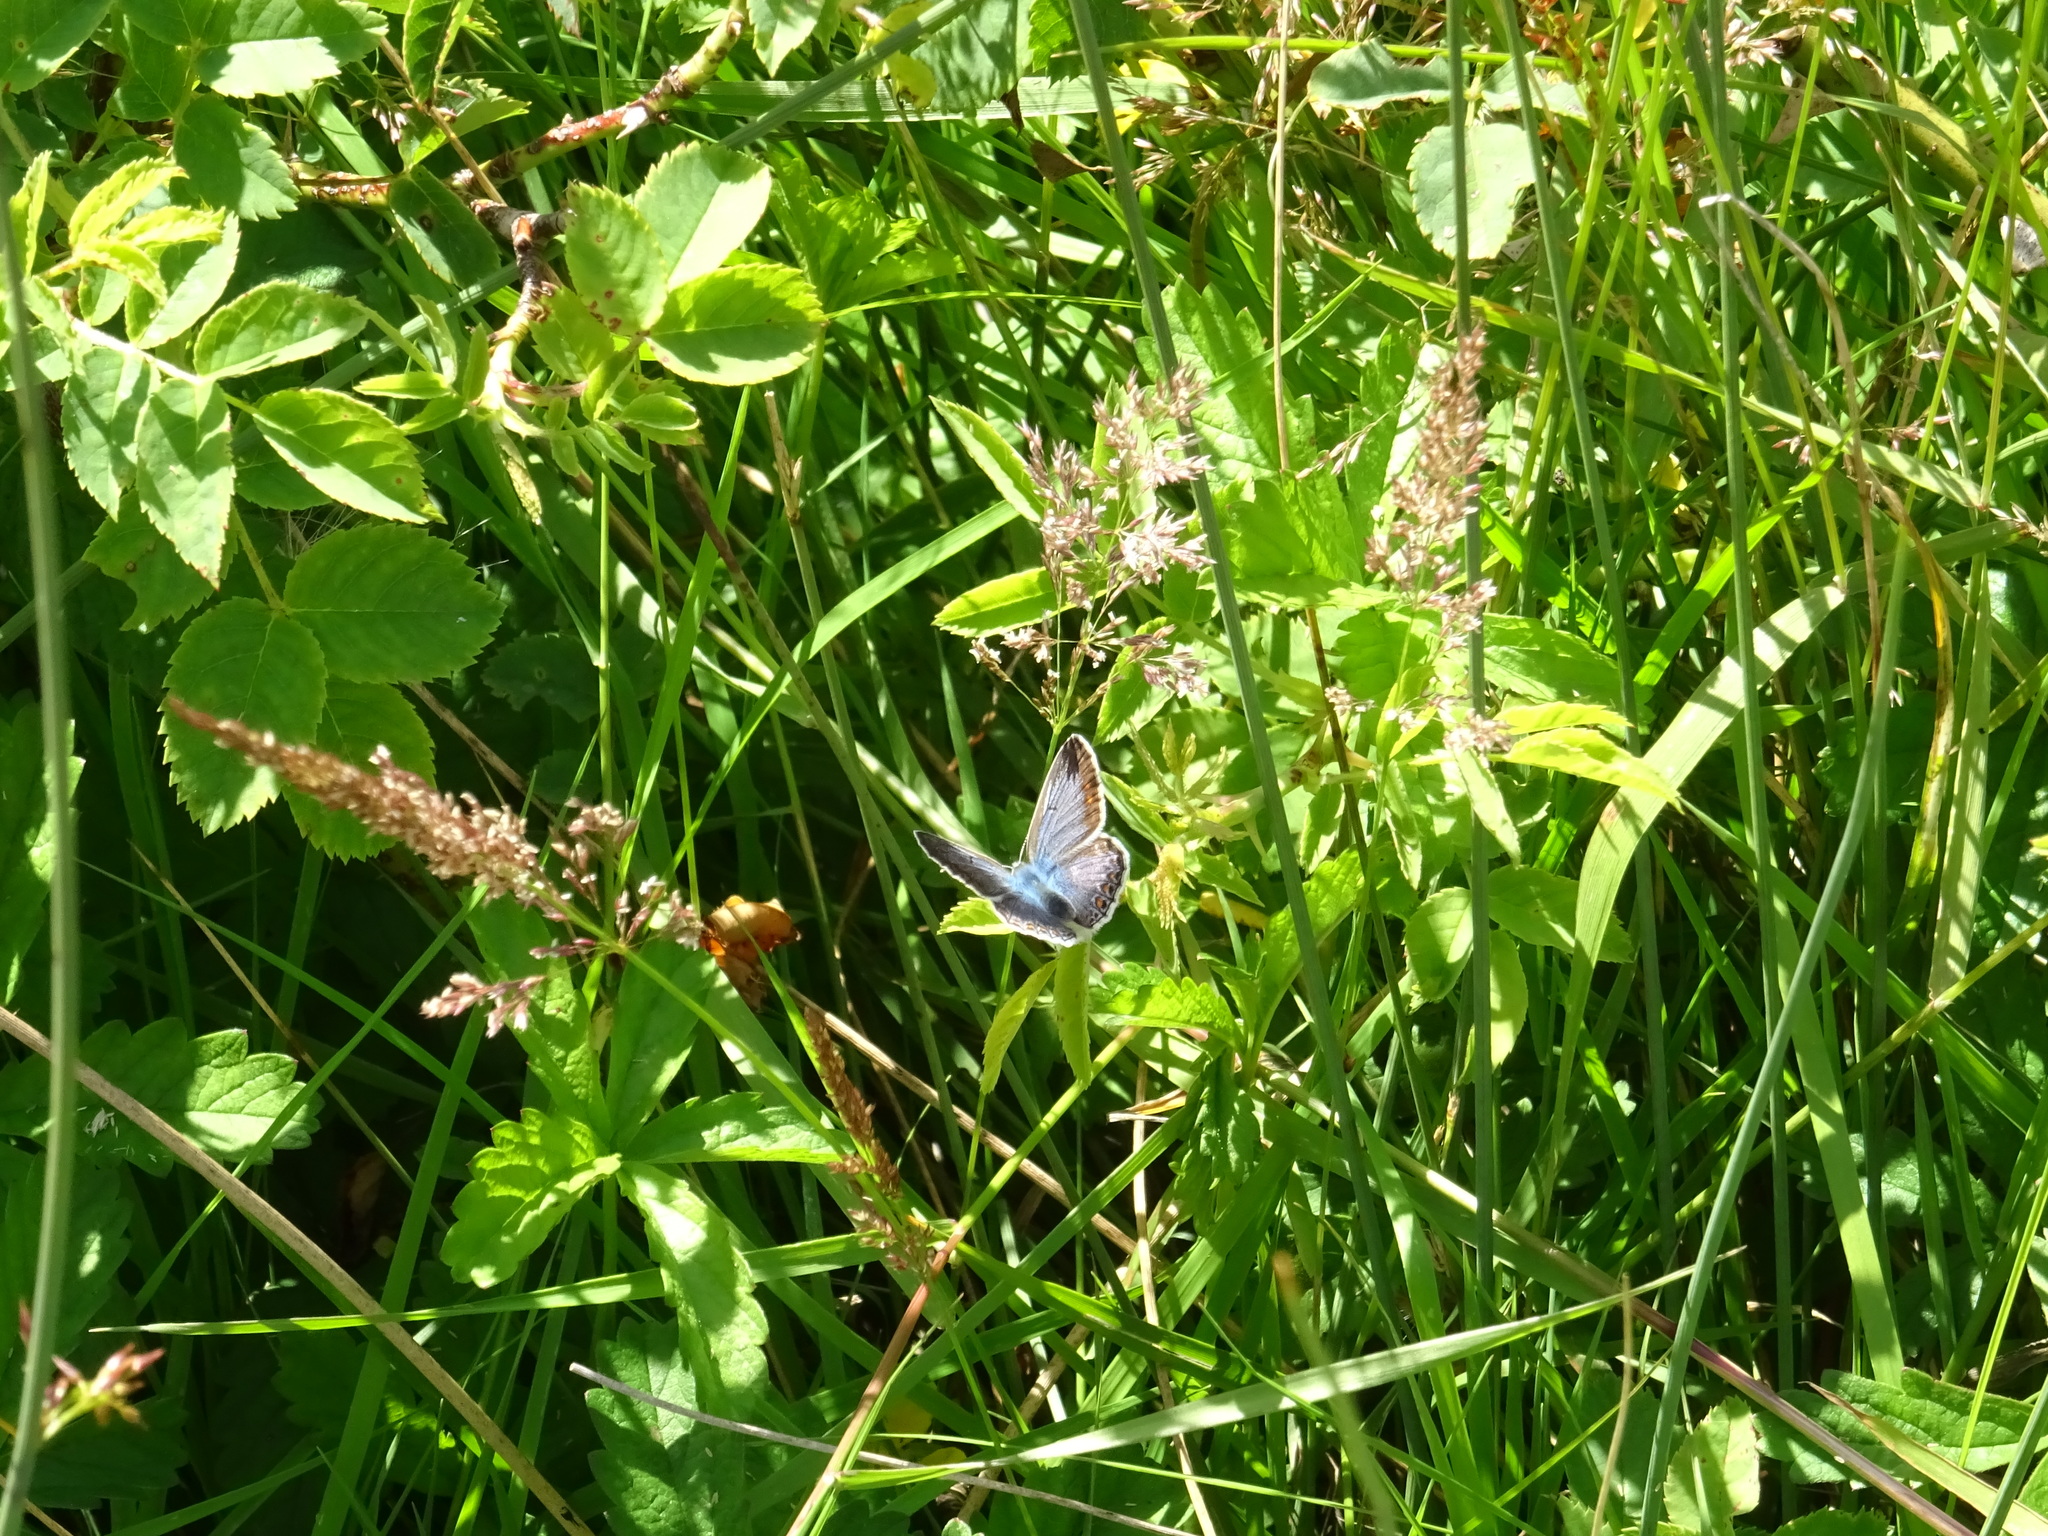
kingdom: Animalia
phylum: Arthropoda
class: Insecta
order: Lepidoptera
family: Lycaenidae
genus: Polyommatus
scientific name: Polyommatus icarus
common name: Common blue
